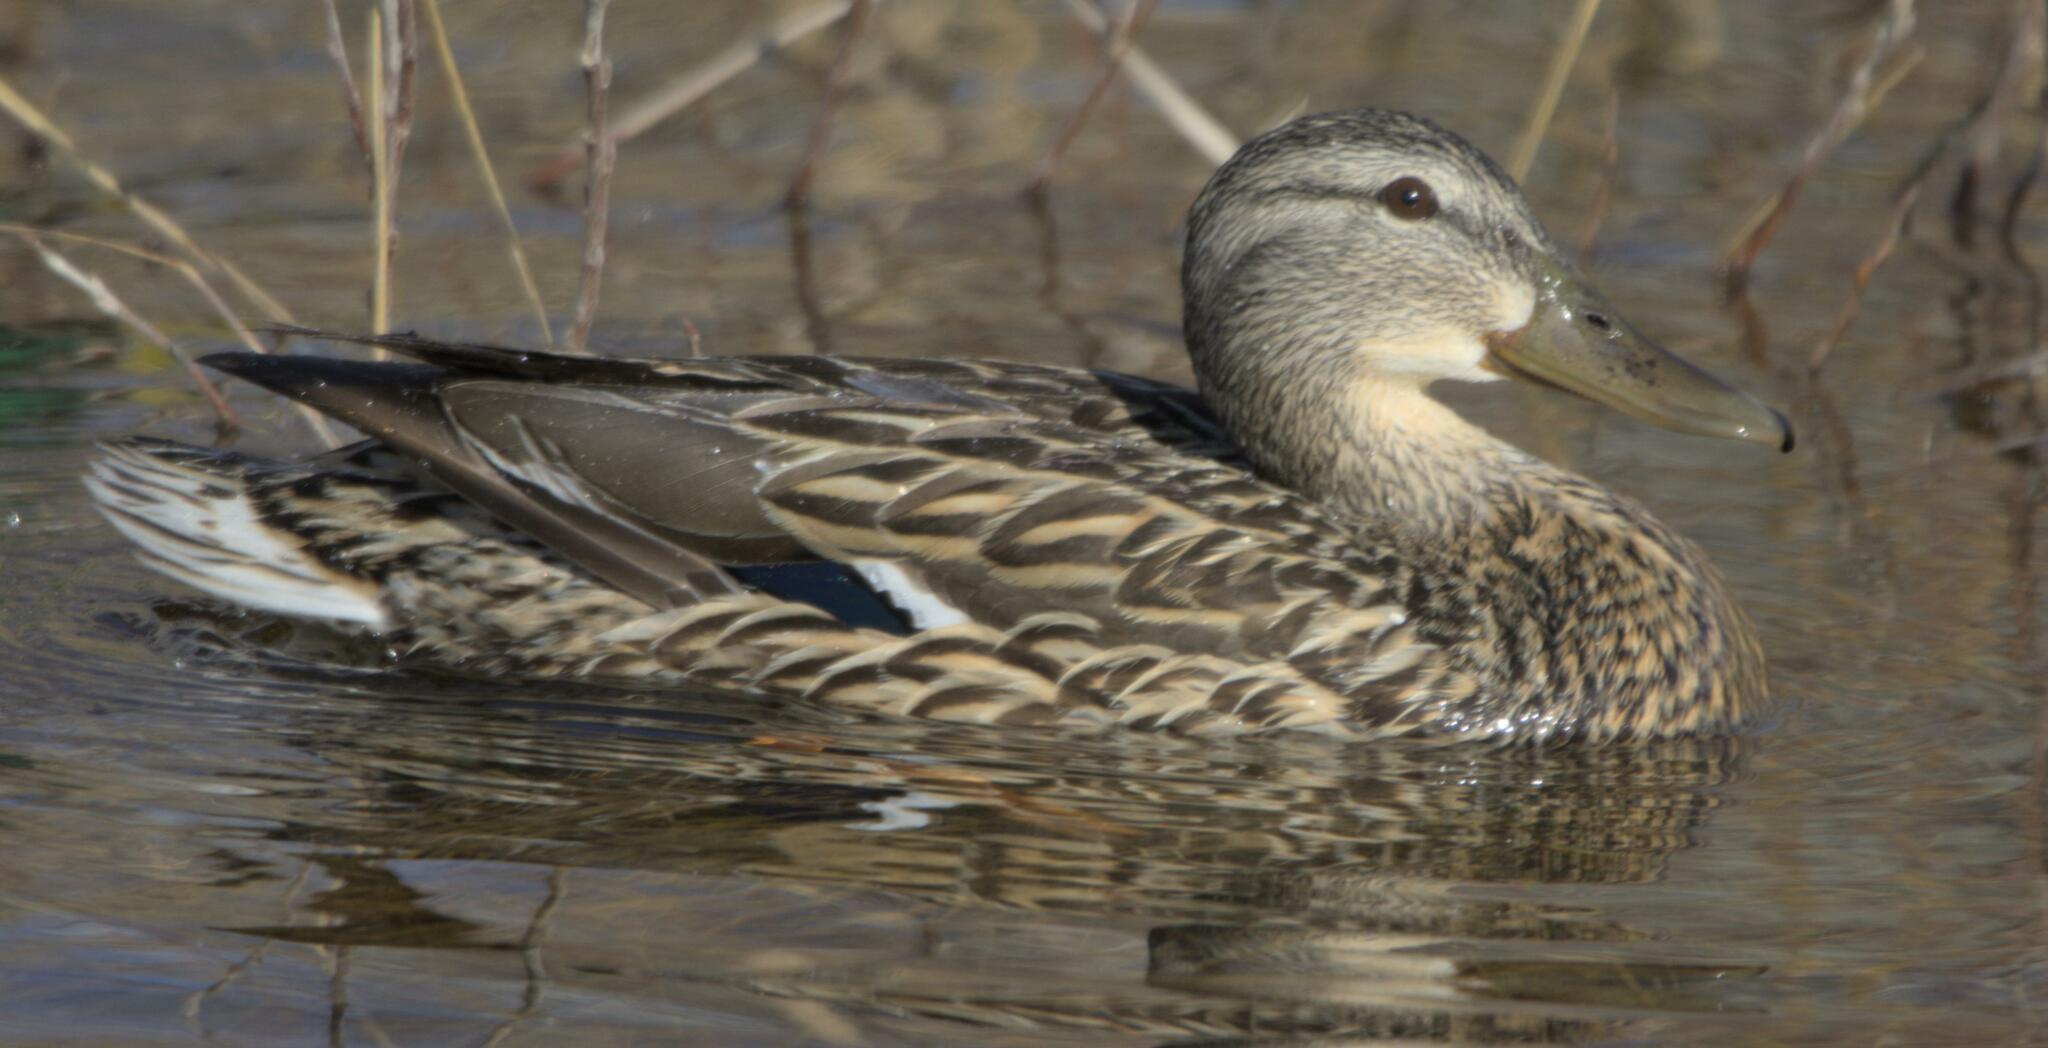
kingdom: Animalia
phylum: Chordata
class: Aves
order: Anseriformes
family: Anatidae
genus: Anas
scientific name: Anas platyrhynchos
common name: Mallard
